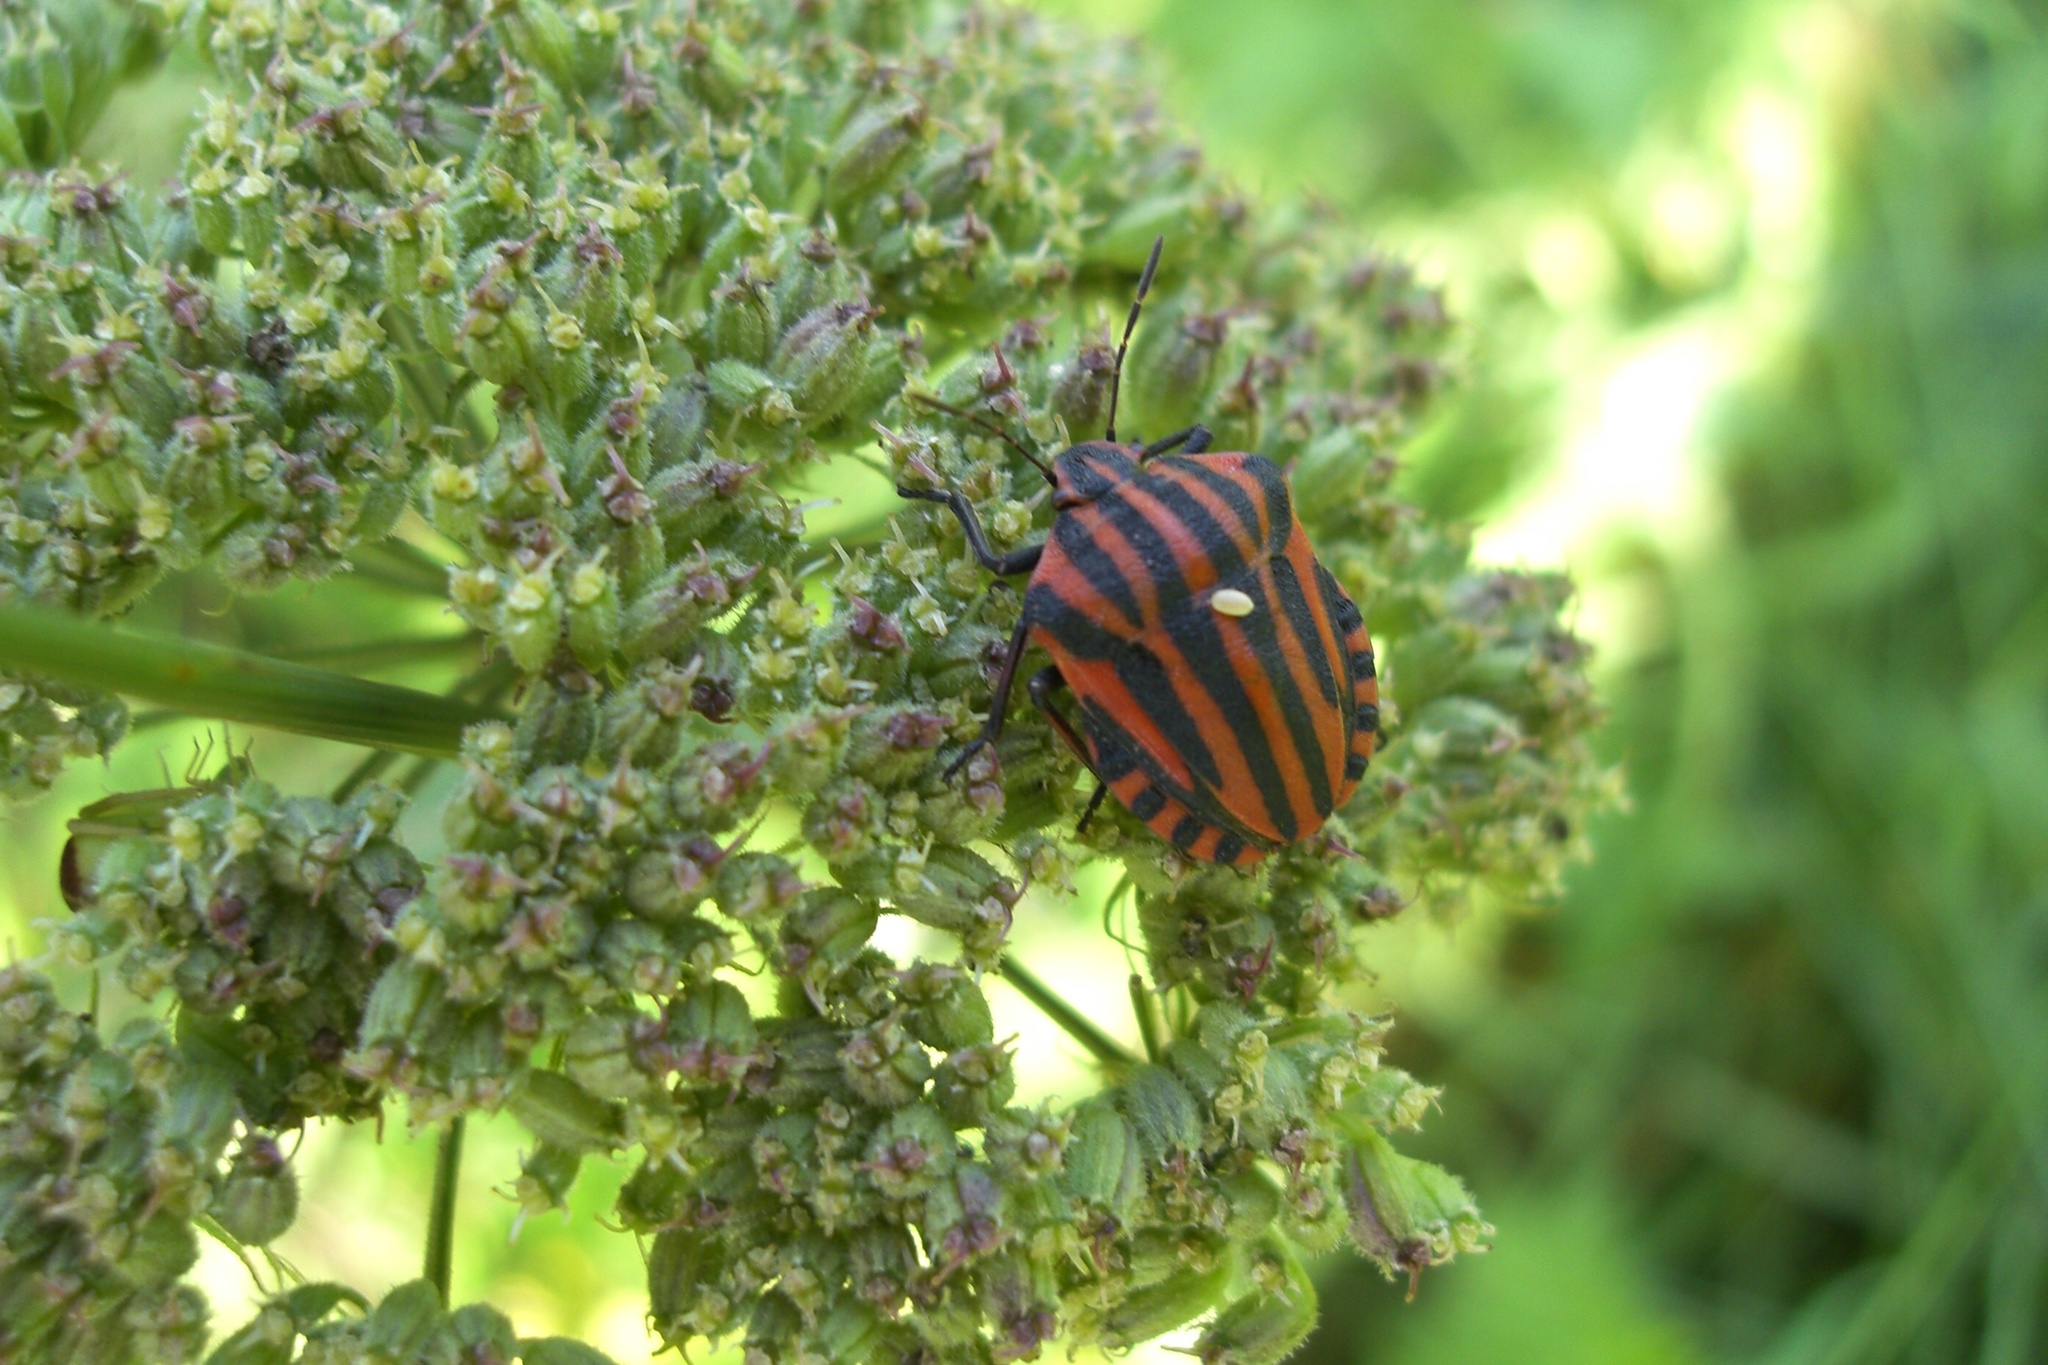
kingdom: Animalia
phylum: Arthropoda
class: Insecta
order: Hemiptera
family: Pentatomidae
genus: Graphosoma
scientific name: Graphosoma italicum
